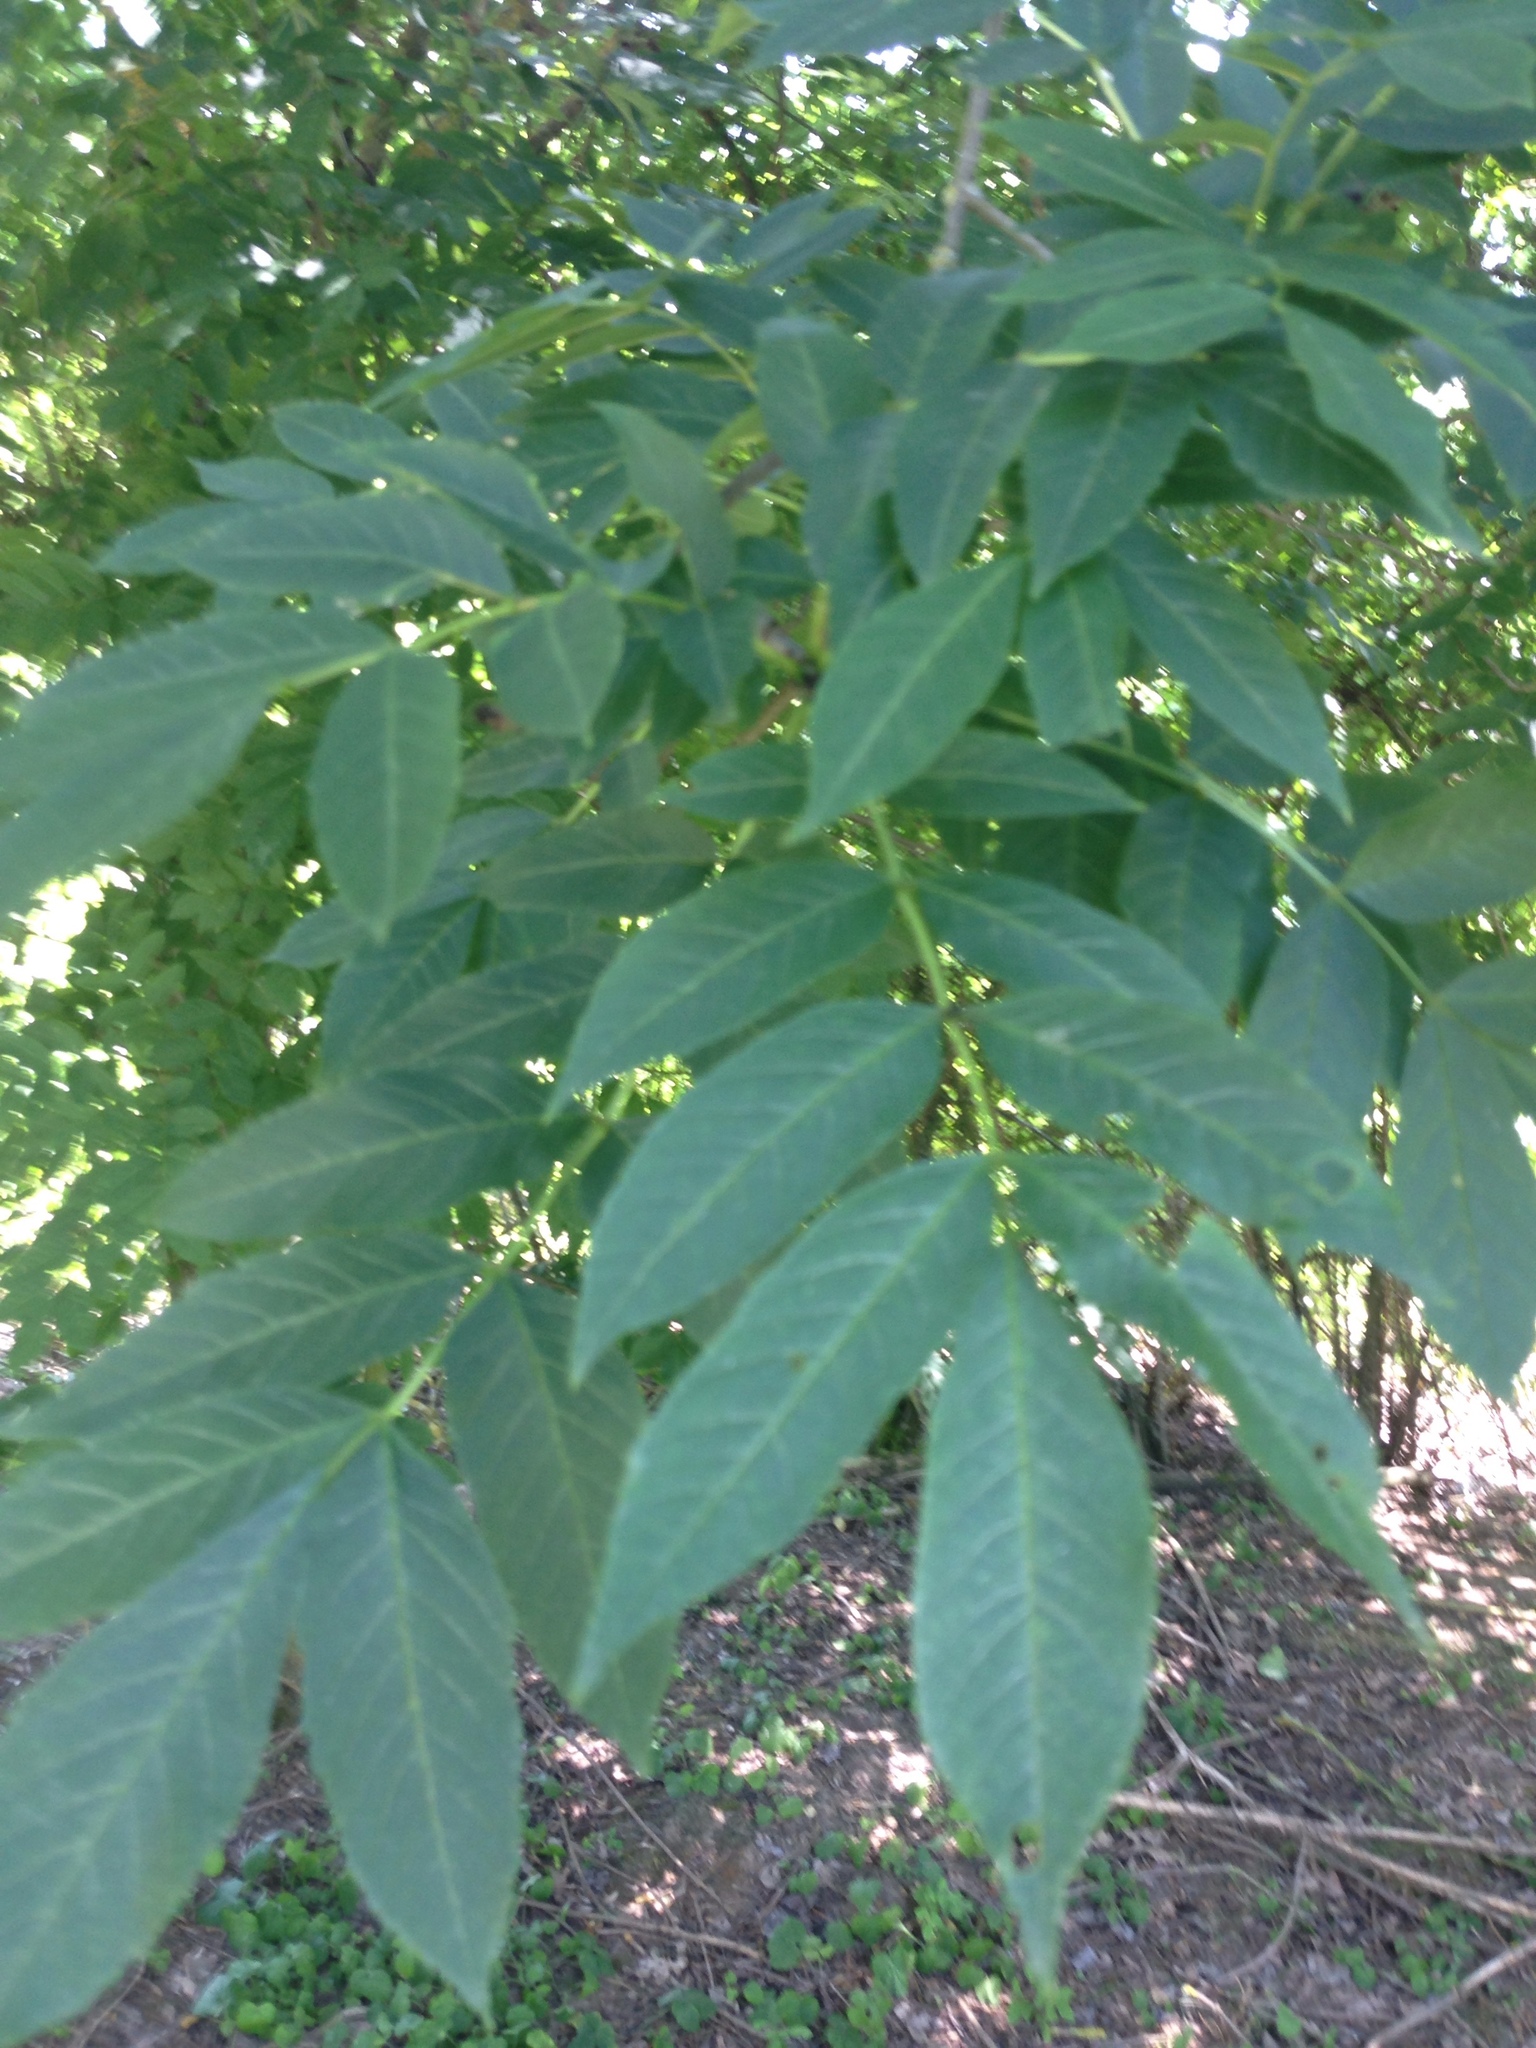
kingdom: Plantae
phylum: Tracheophyta
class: Magnoliopsida
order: Lamiales
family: Oleaceae
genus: Fraxinus
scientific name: Fraxinus excelsior
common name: European ash
